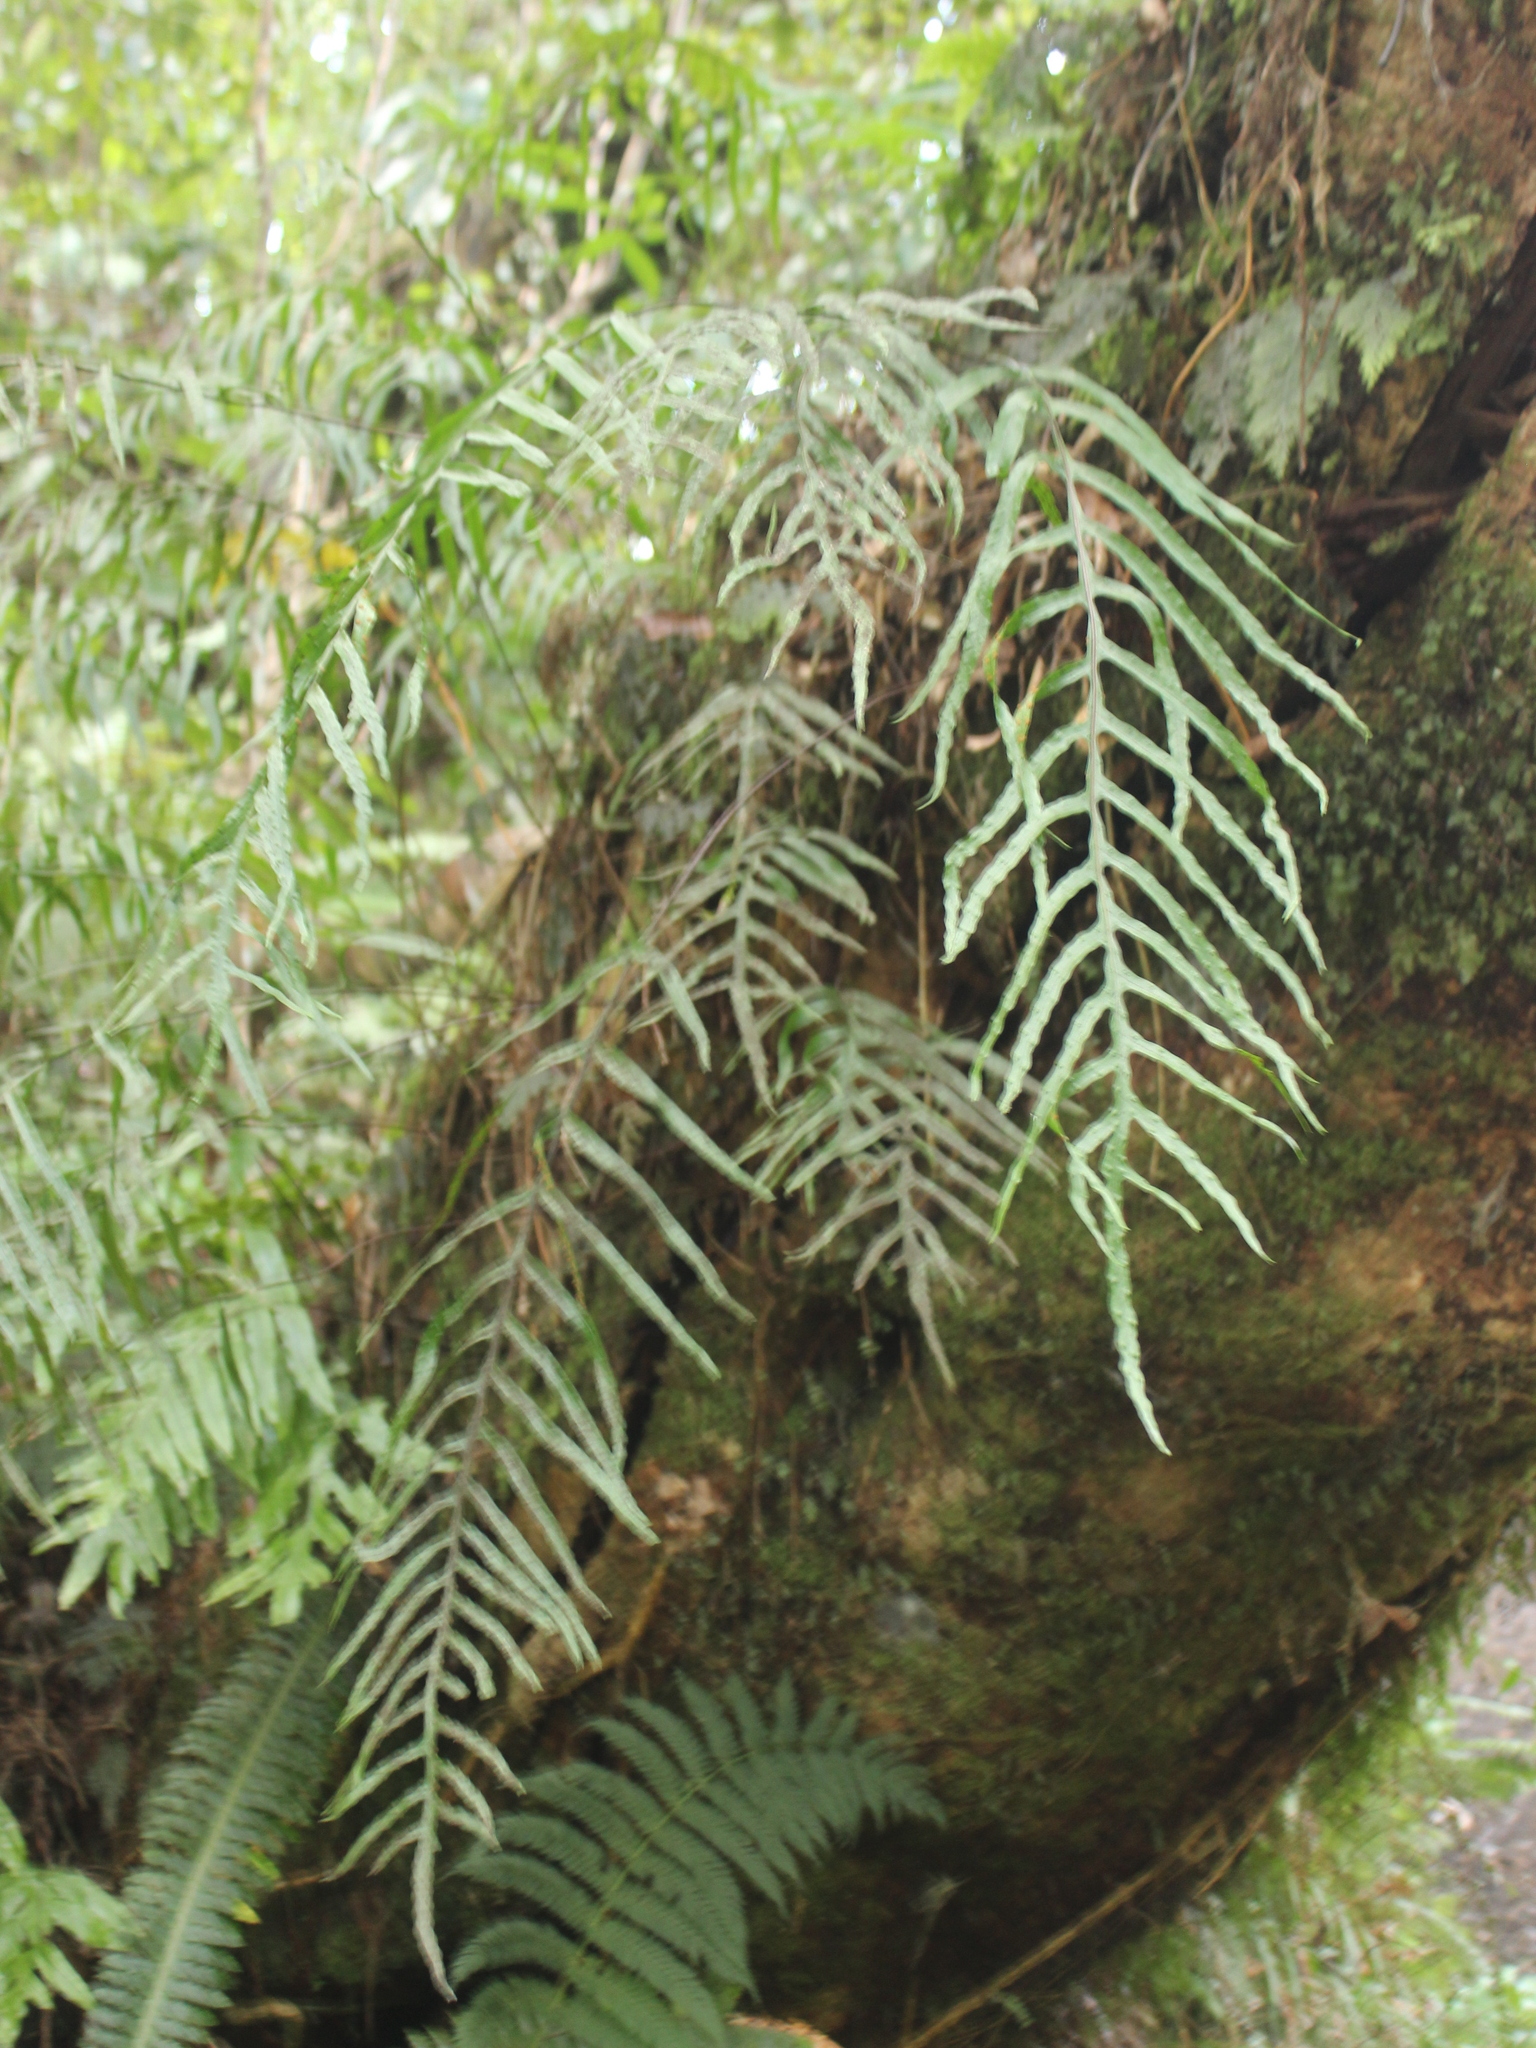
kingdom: Plantae
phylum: Tracheophyta
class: Polypodiopsida
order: Polypodiales
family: Polypodiaceae
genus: Lecanopteris
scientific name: Lecanopteris novae-zealandiae
